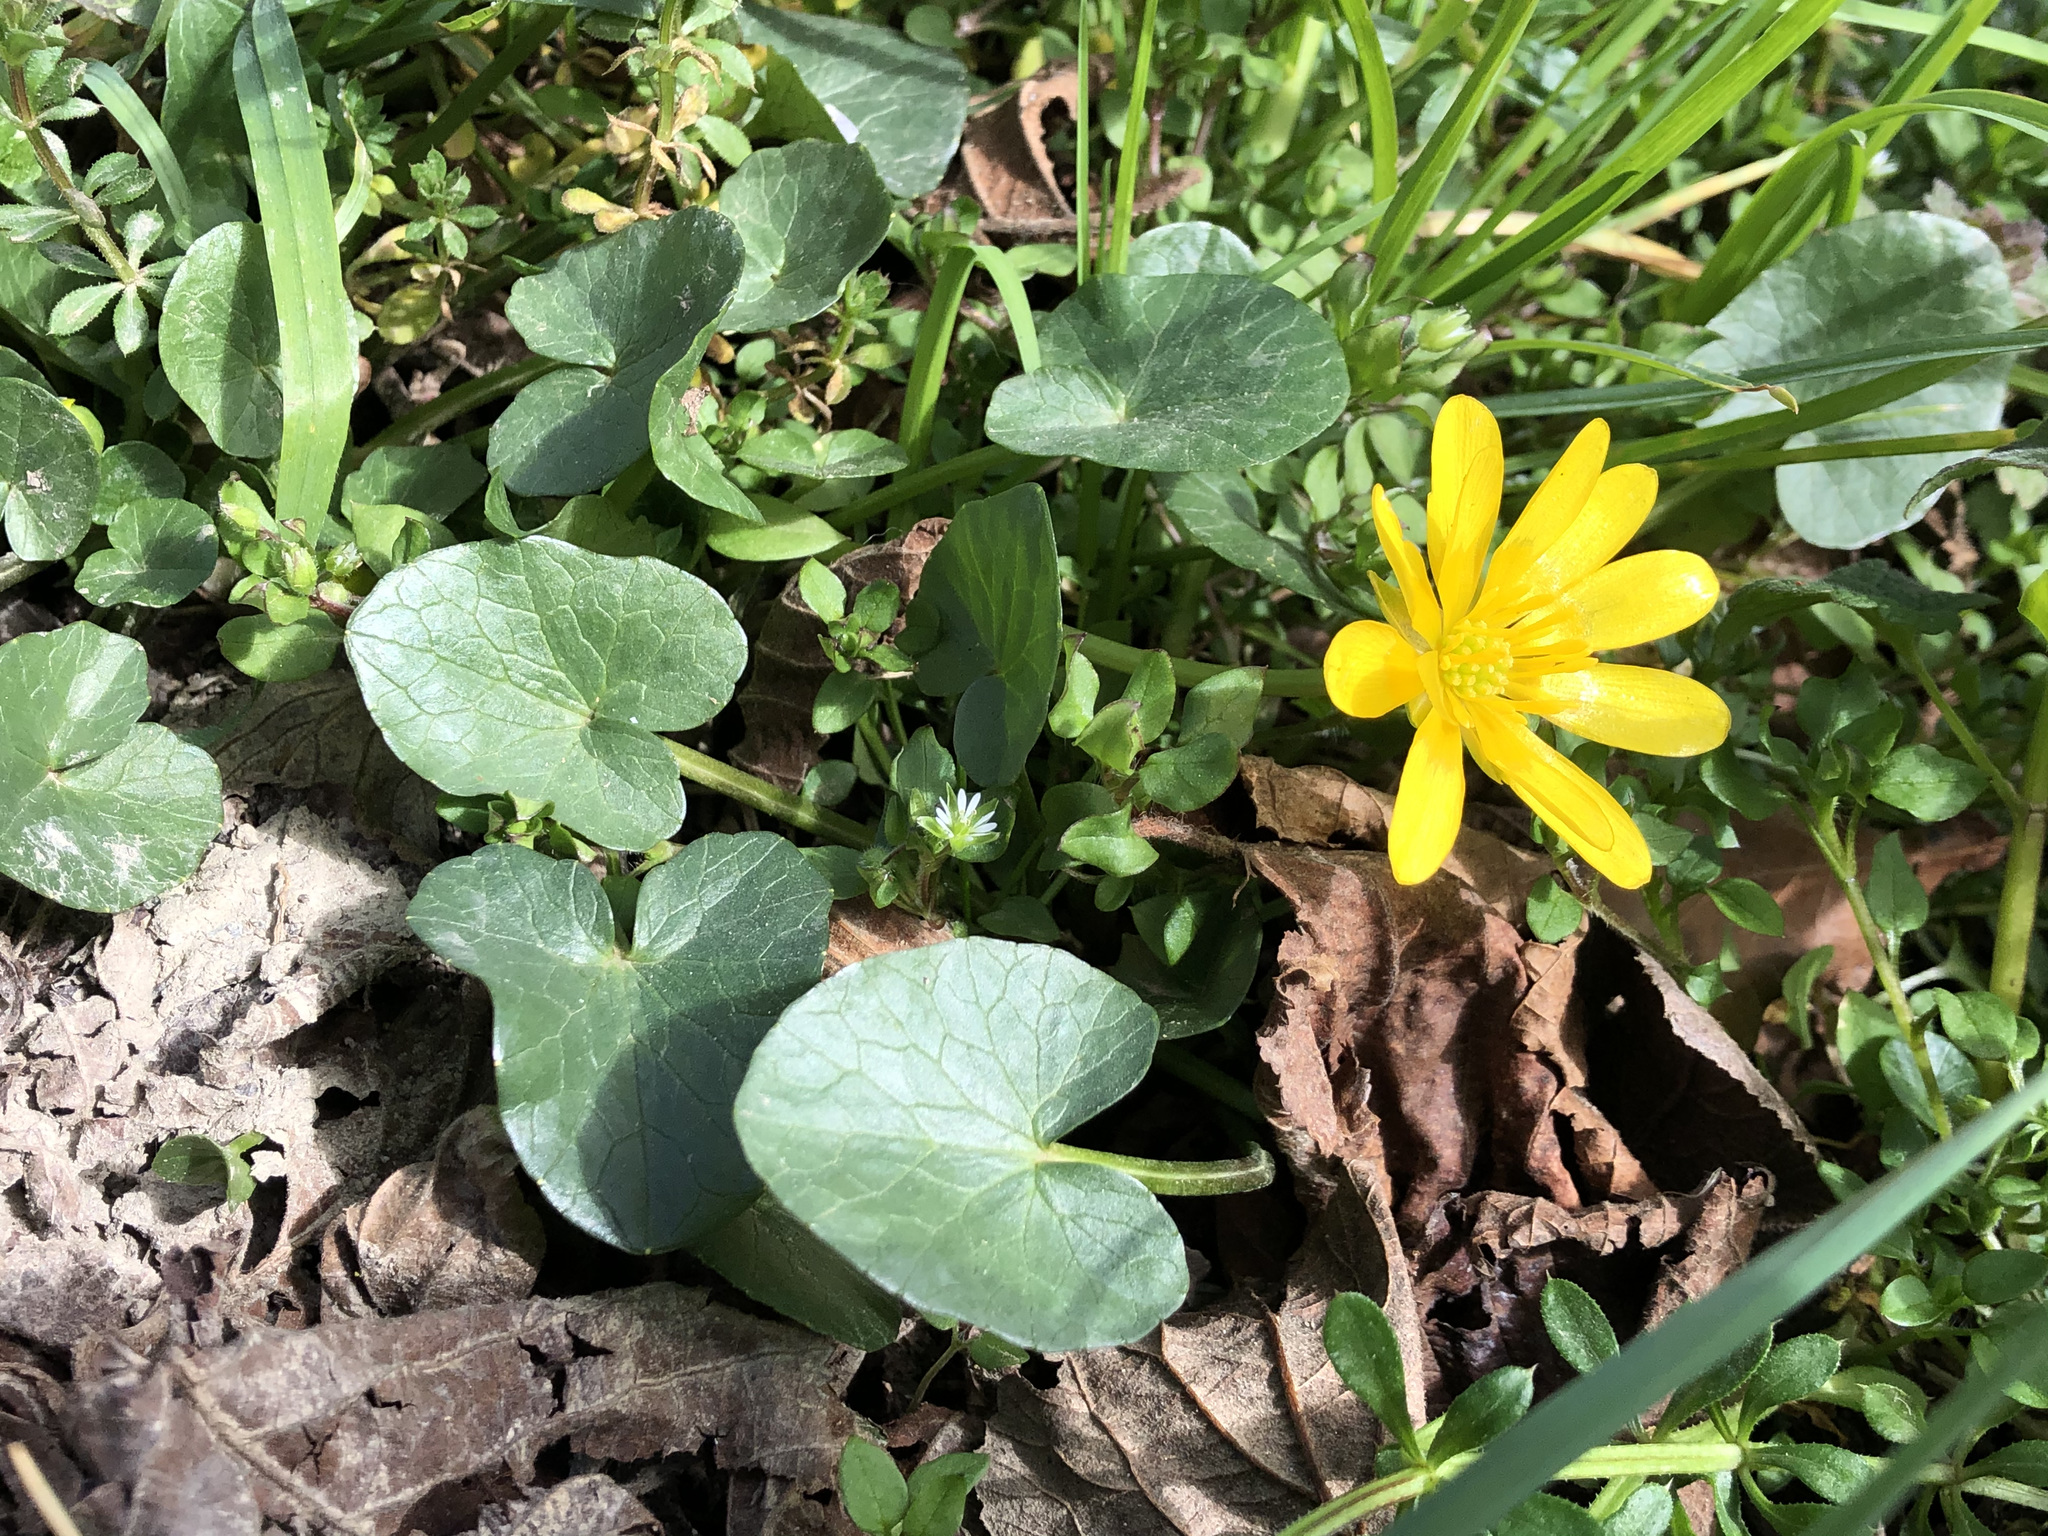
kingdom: Plantae
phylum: Tracheophyta
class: Magnoliopsida
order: Ranunculales
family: Ranunculaceae
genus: Ficaria
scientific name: Ficaria verna
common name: Lesser celandine
